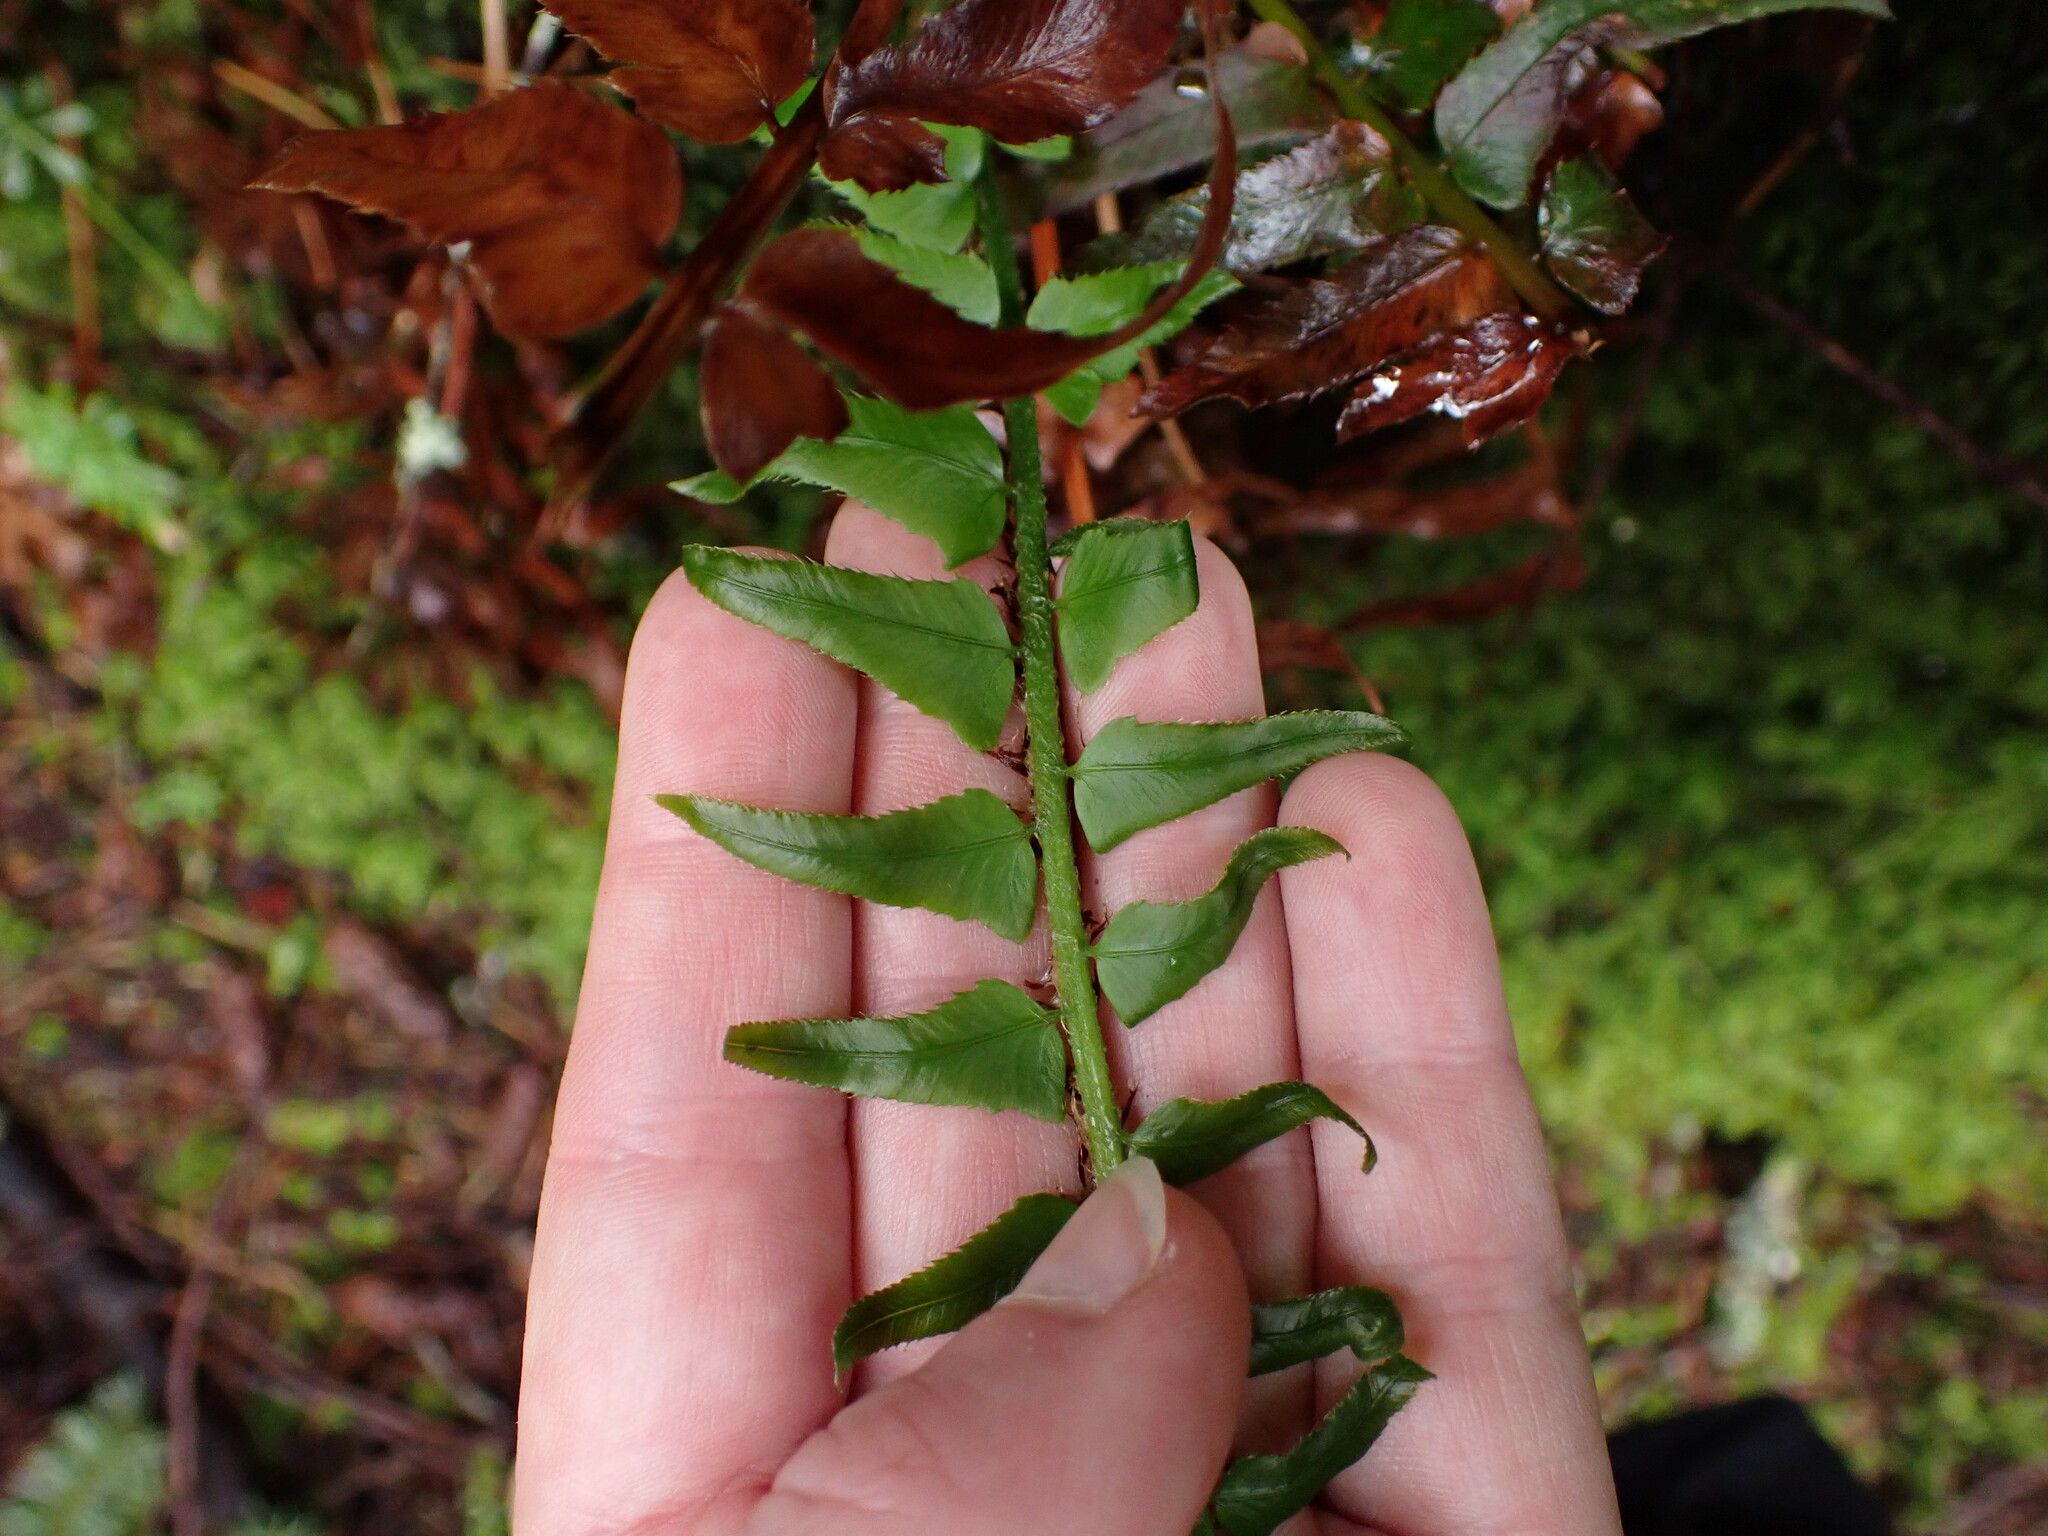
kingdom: Plantae
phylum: Tracheophyta
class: Polypodiopsida
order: Polypodiales
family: Dryopteridaceae
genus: Polystichum
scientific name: Polystichum munitum
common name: Western sword-fern
